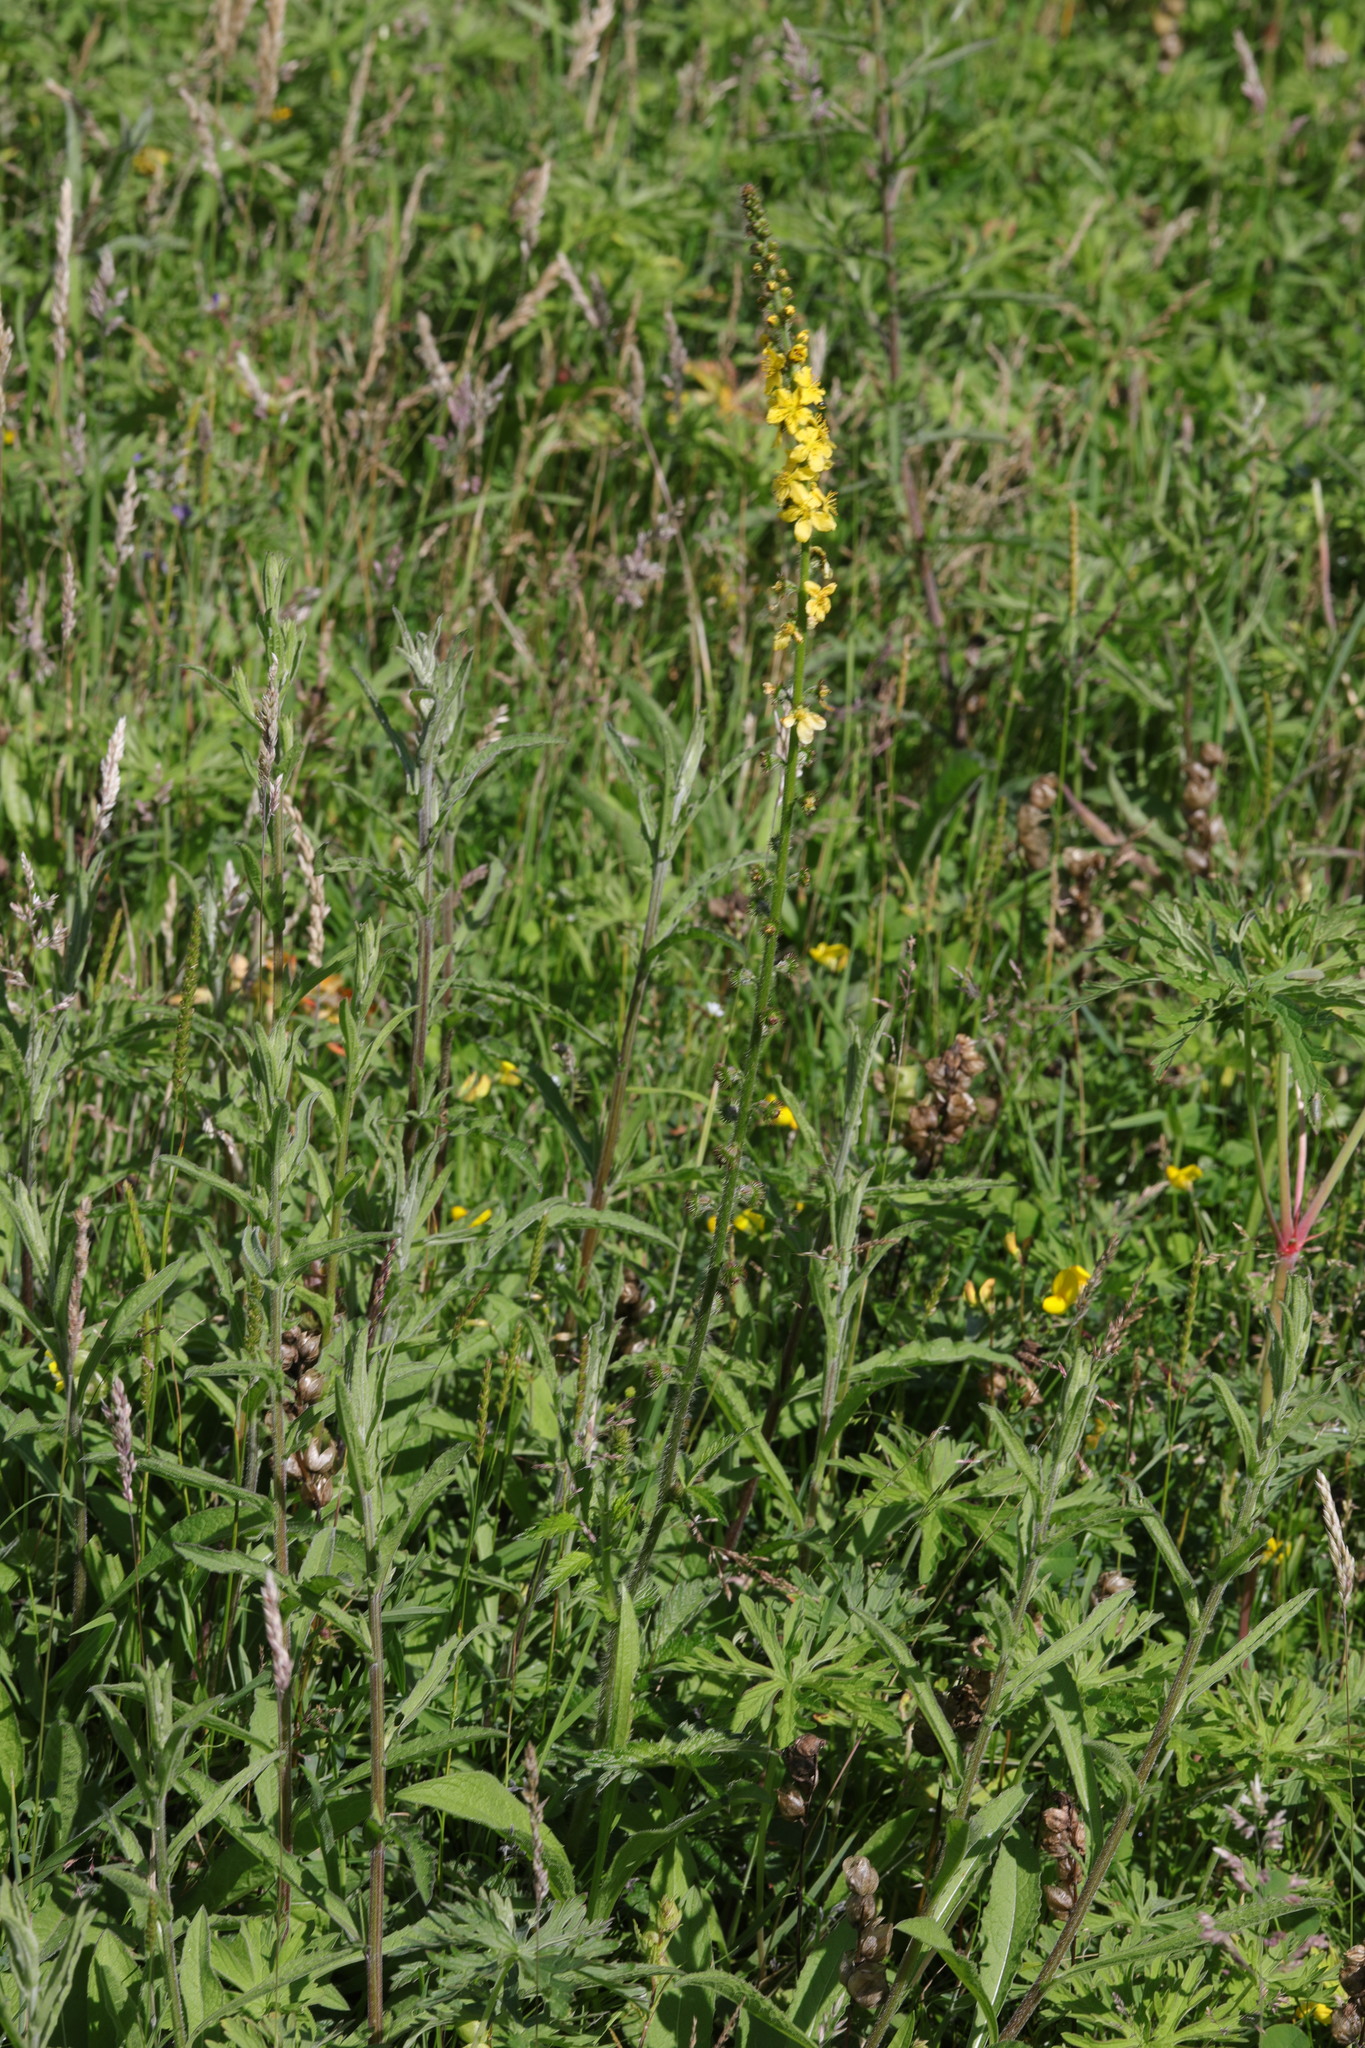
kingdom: Plantae
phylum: Tracheophyta
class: Magnoliopsida
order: Rosales
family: Rosaceae
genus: Agrimonia
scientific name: Agrimonia eupatoria
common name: Agrimony
